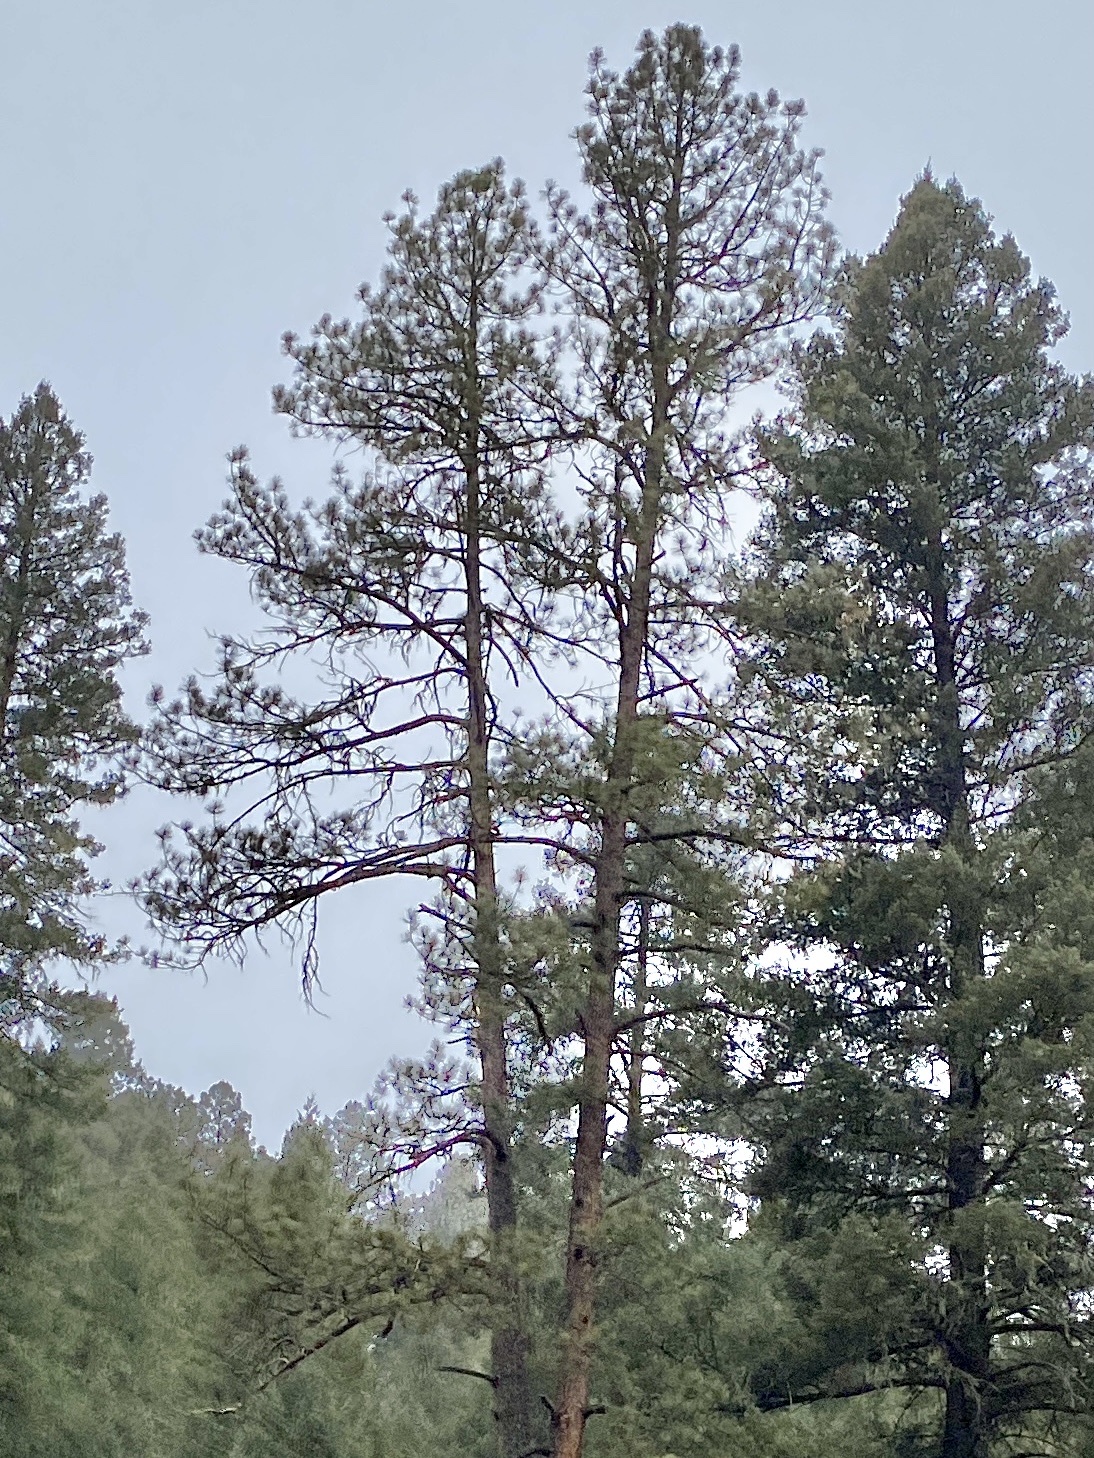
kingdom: Plantae
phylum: Tracheophyta
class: Pinopsida
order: Pinales
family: Pinaceae
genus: Pinus
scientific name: Pinus ponderosa
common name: Western yellow-pine
